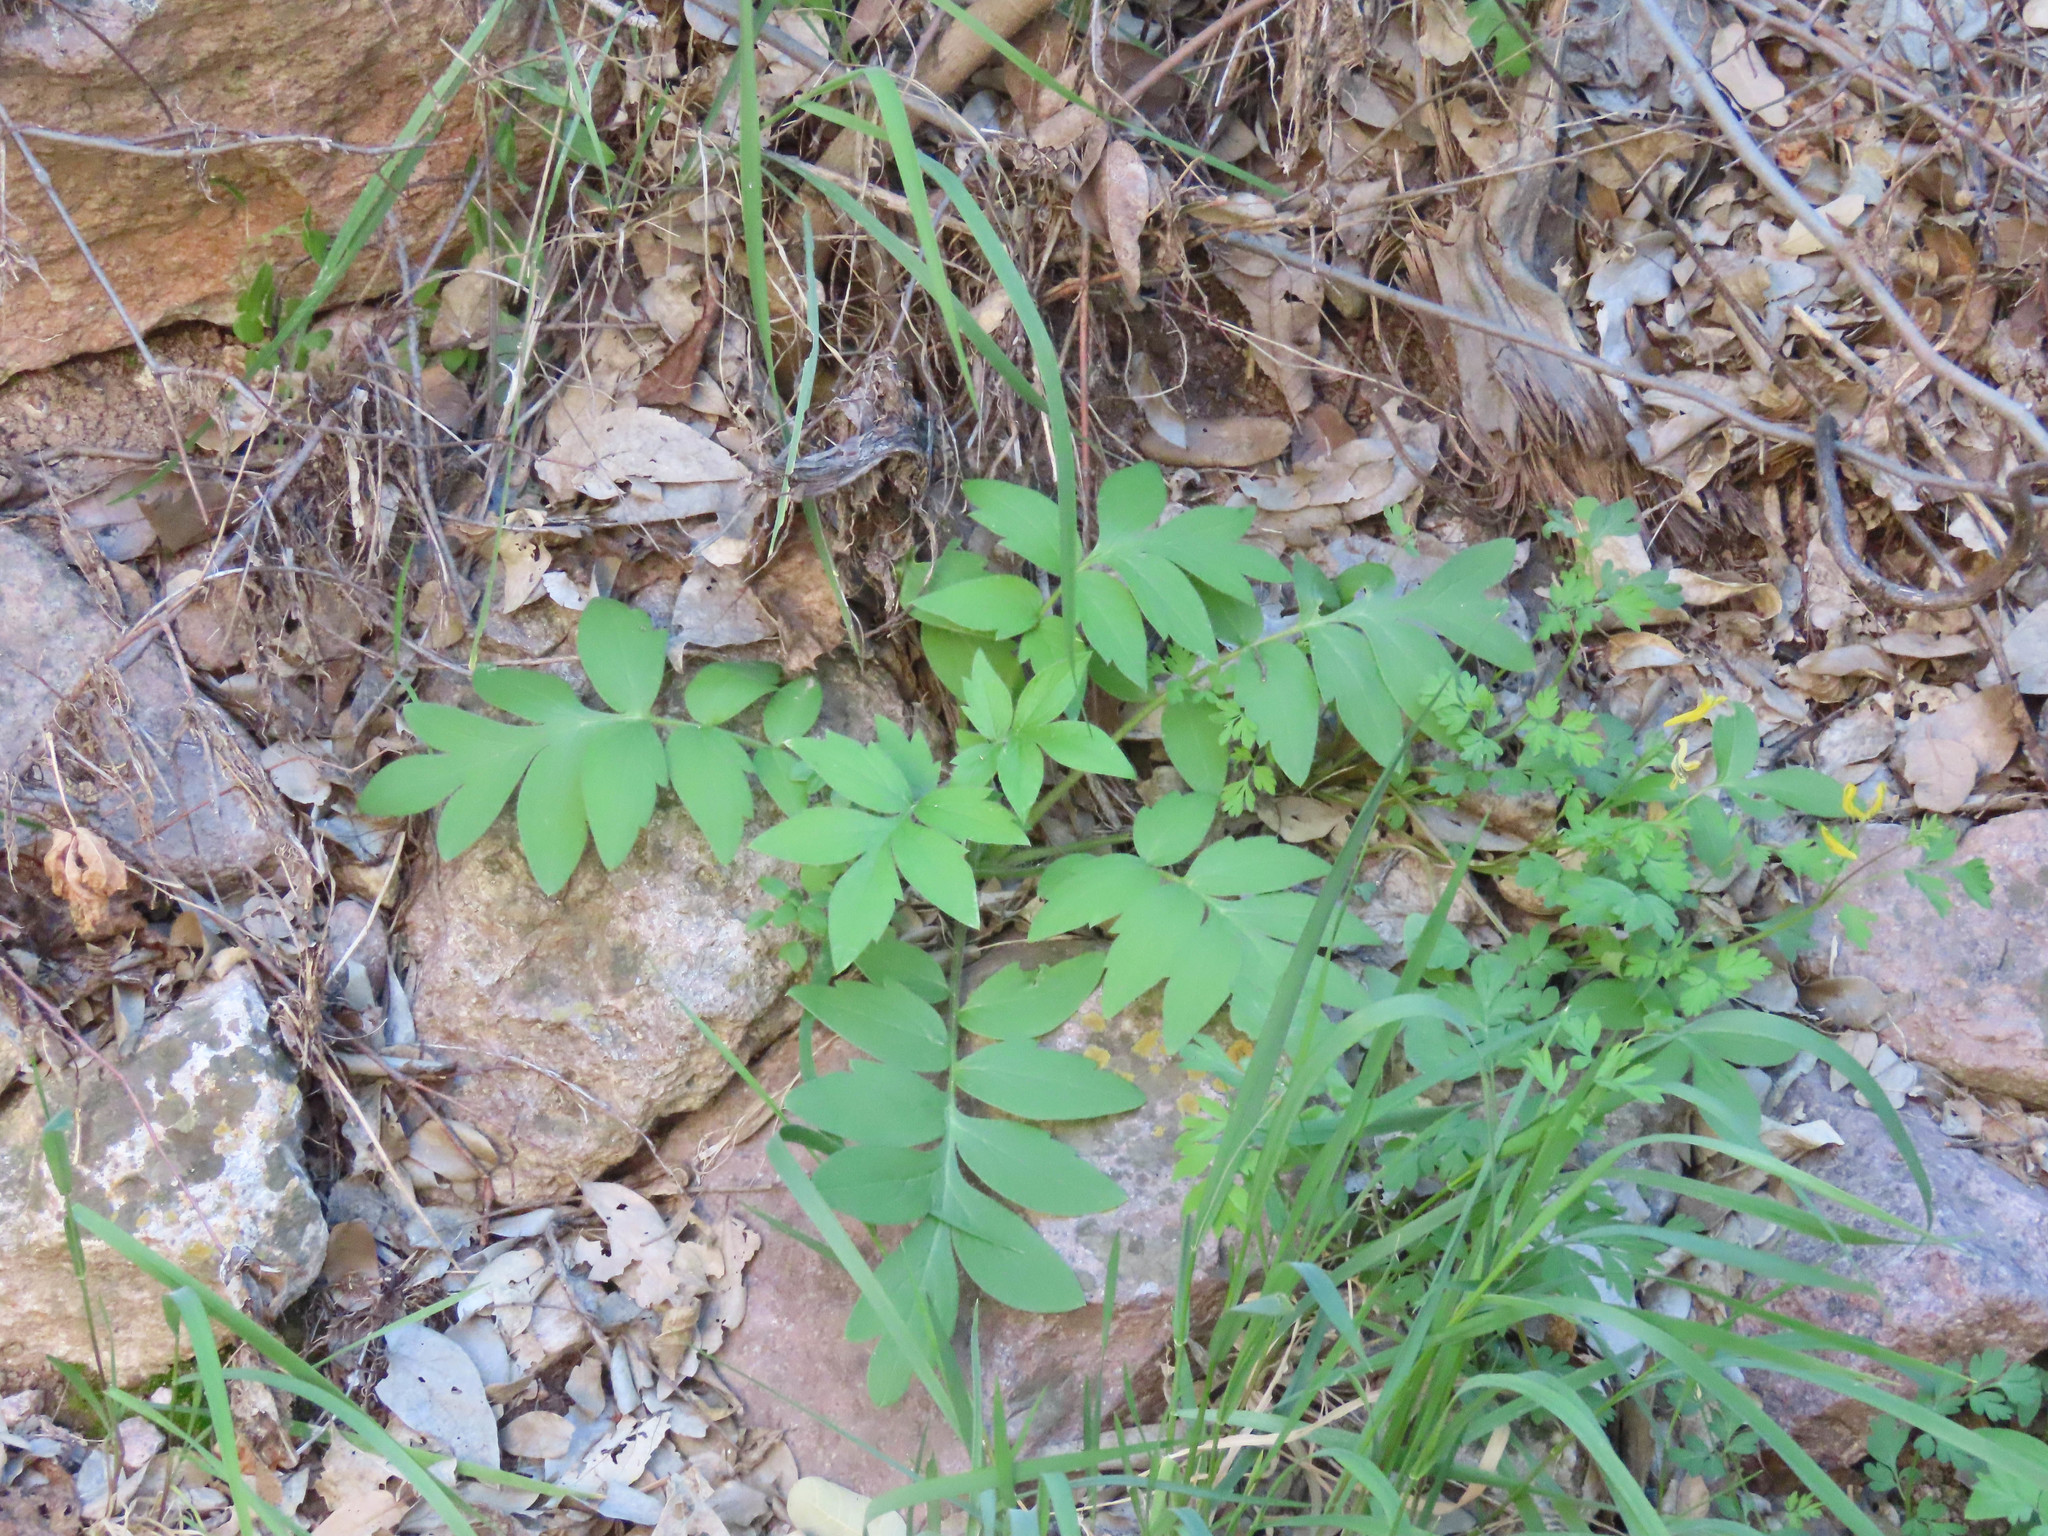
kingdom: Plantae
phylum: Tracheophyta
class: Magnoliopsida
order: Boraginales
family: Hydrophyllaceae
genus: Hydrophyllum
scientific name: Hydrophyllum occidentale
